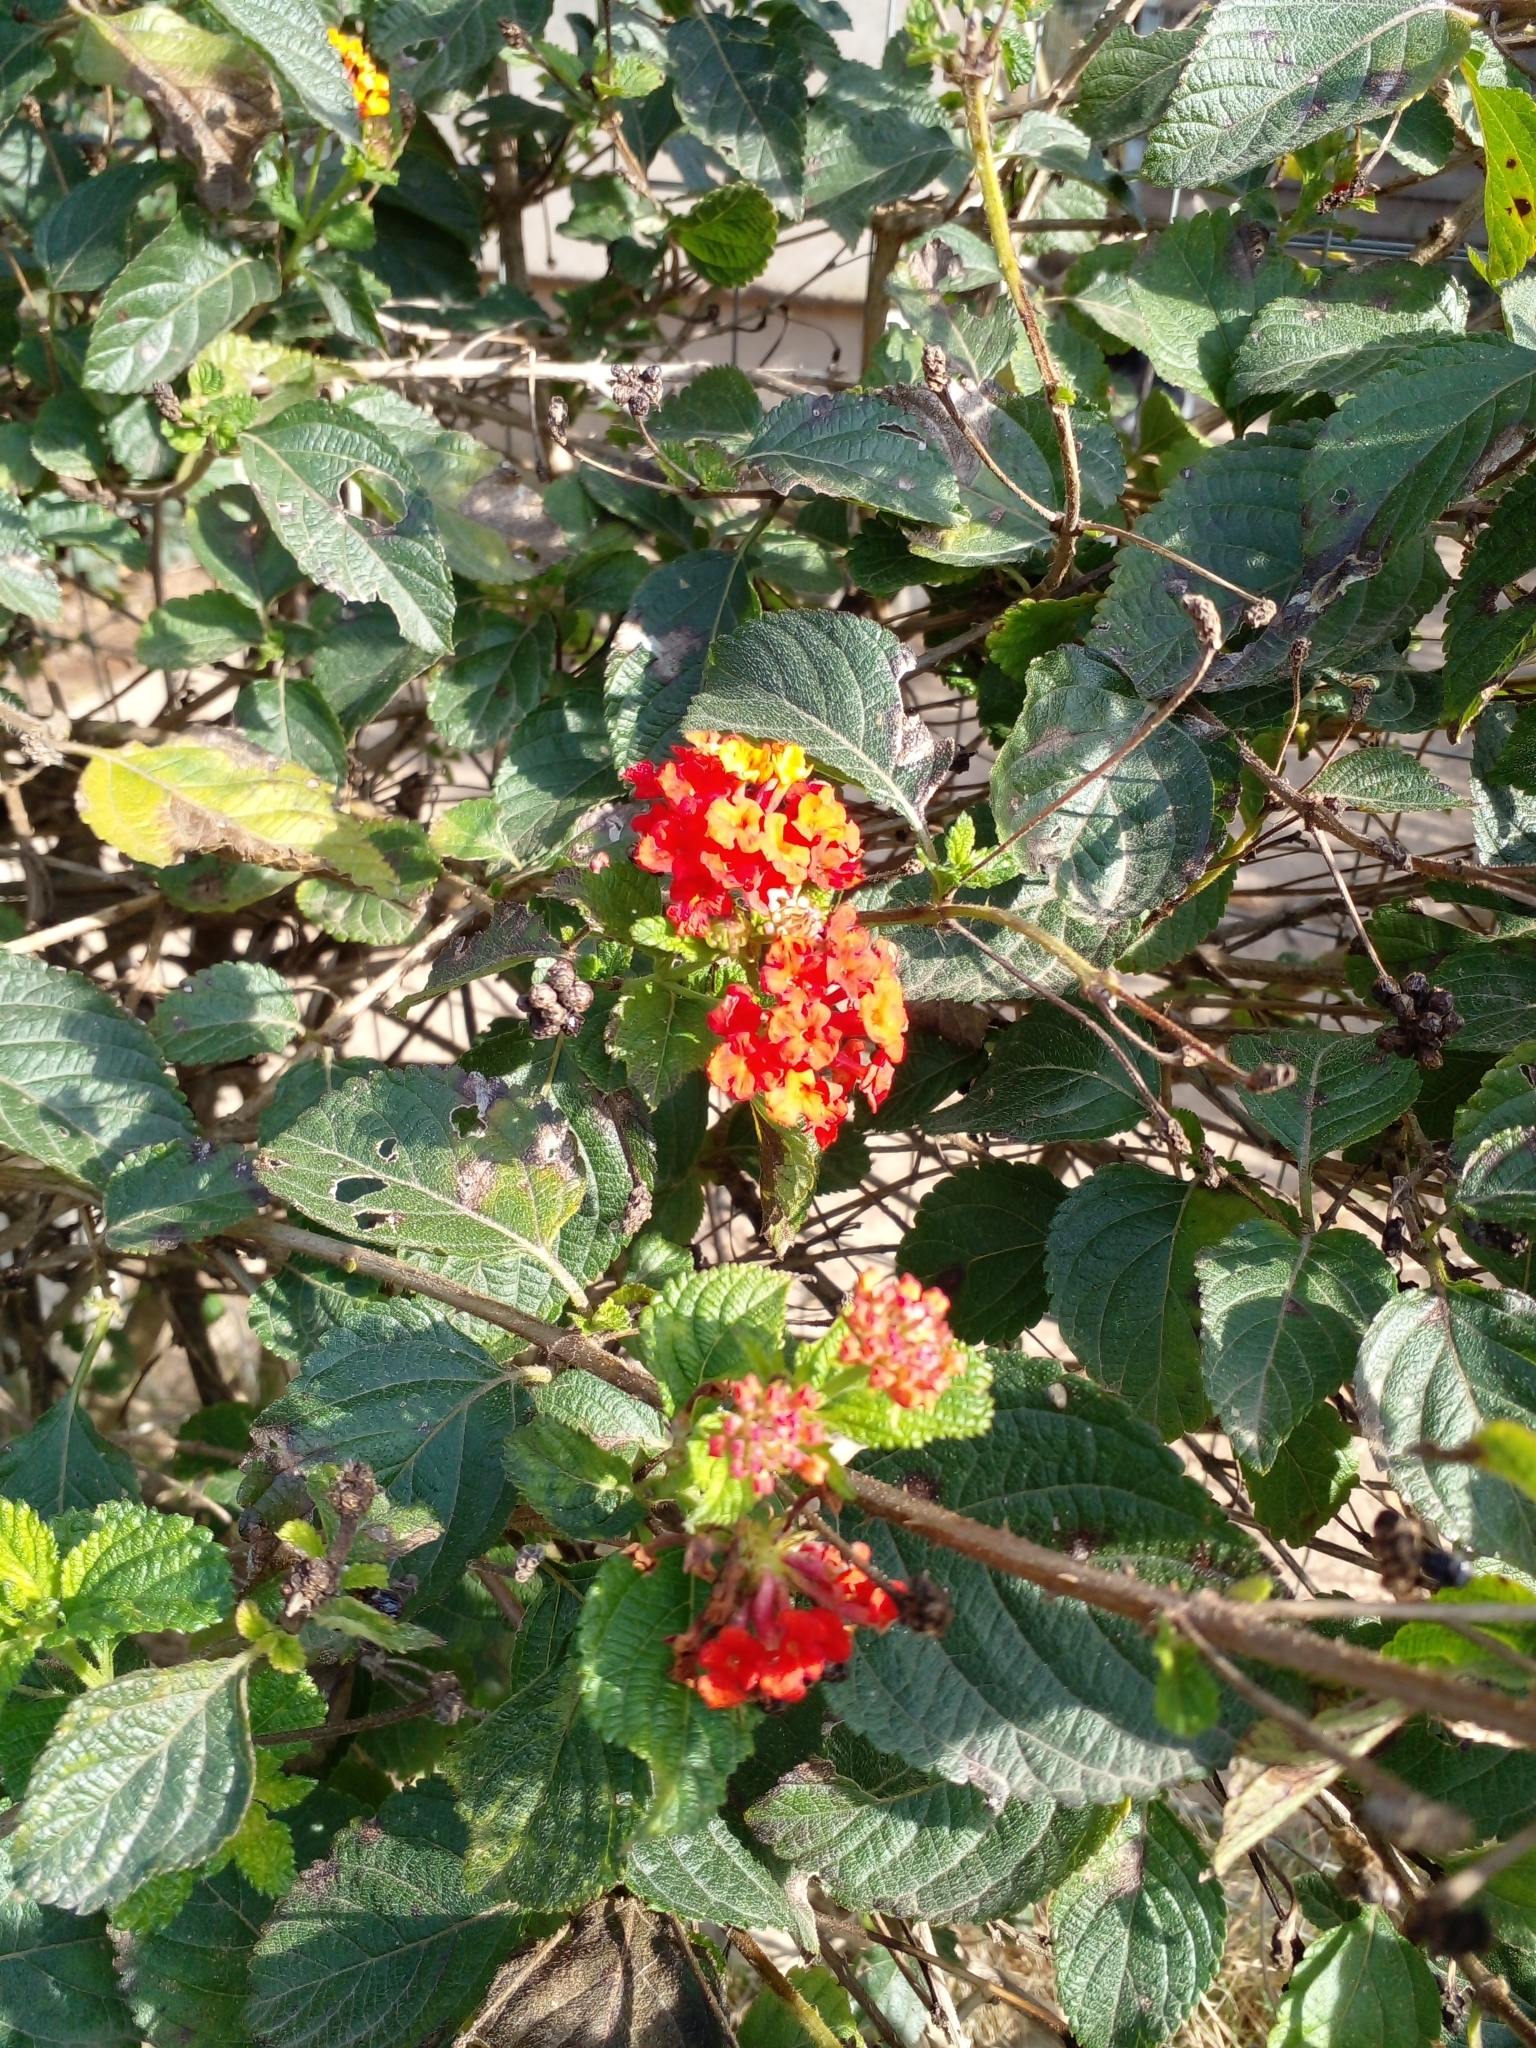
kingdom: Plantae
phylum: Tracheophyta
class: Magnoliopsida
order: Lamiales
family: Verbenaceae
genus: Lantana
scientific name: Lantana camara
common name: Lantana
